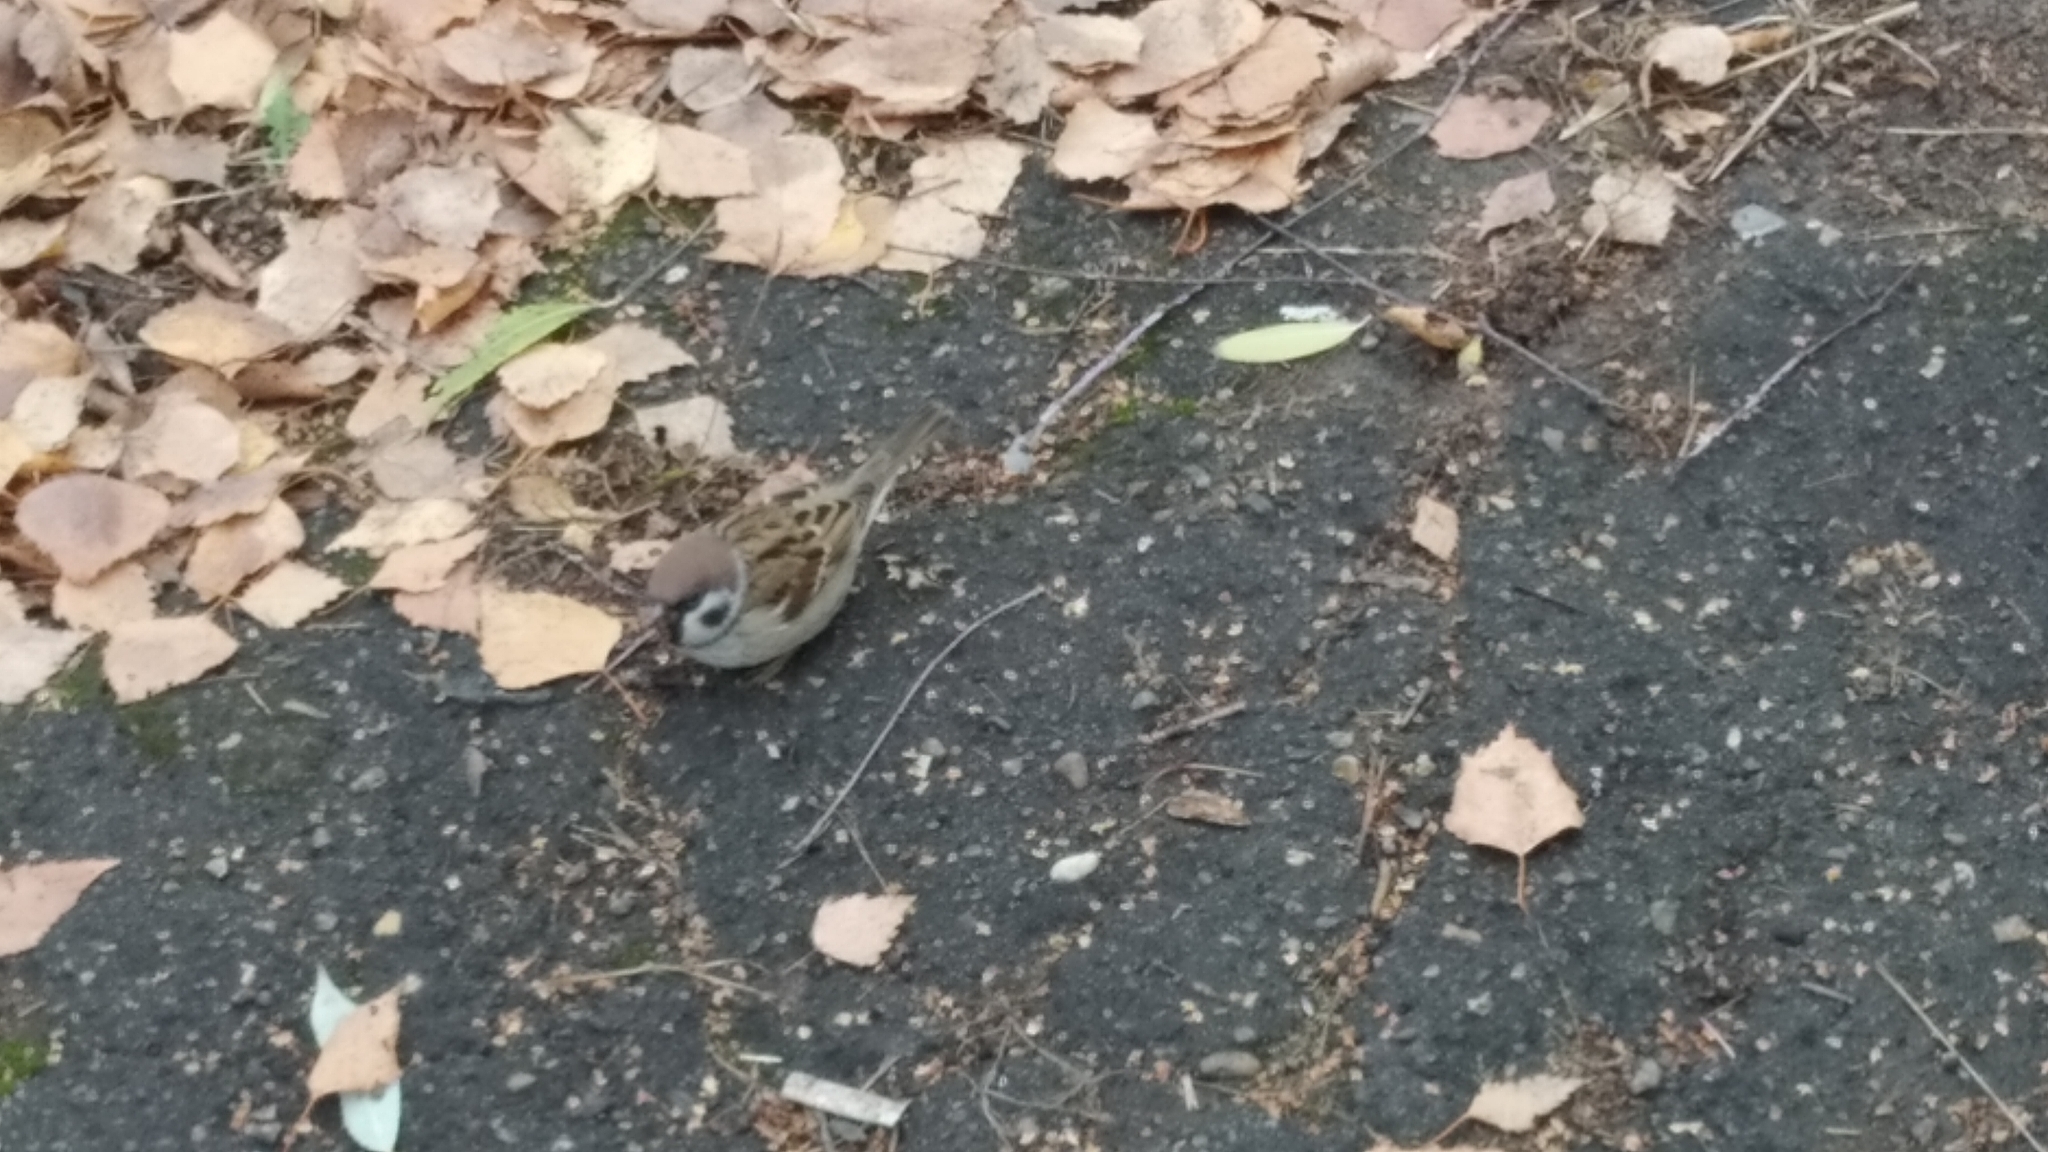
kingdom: Animalia
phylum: Chordata
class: Aves
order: Passeriformes
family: Passeridae
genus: Passer
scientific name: Passer montanus
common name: Eurasian tree sparrow
